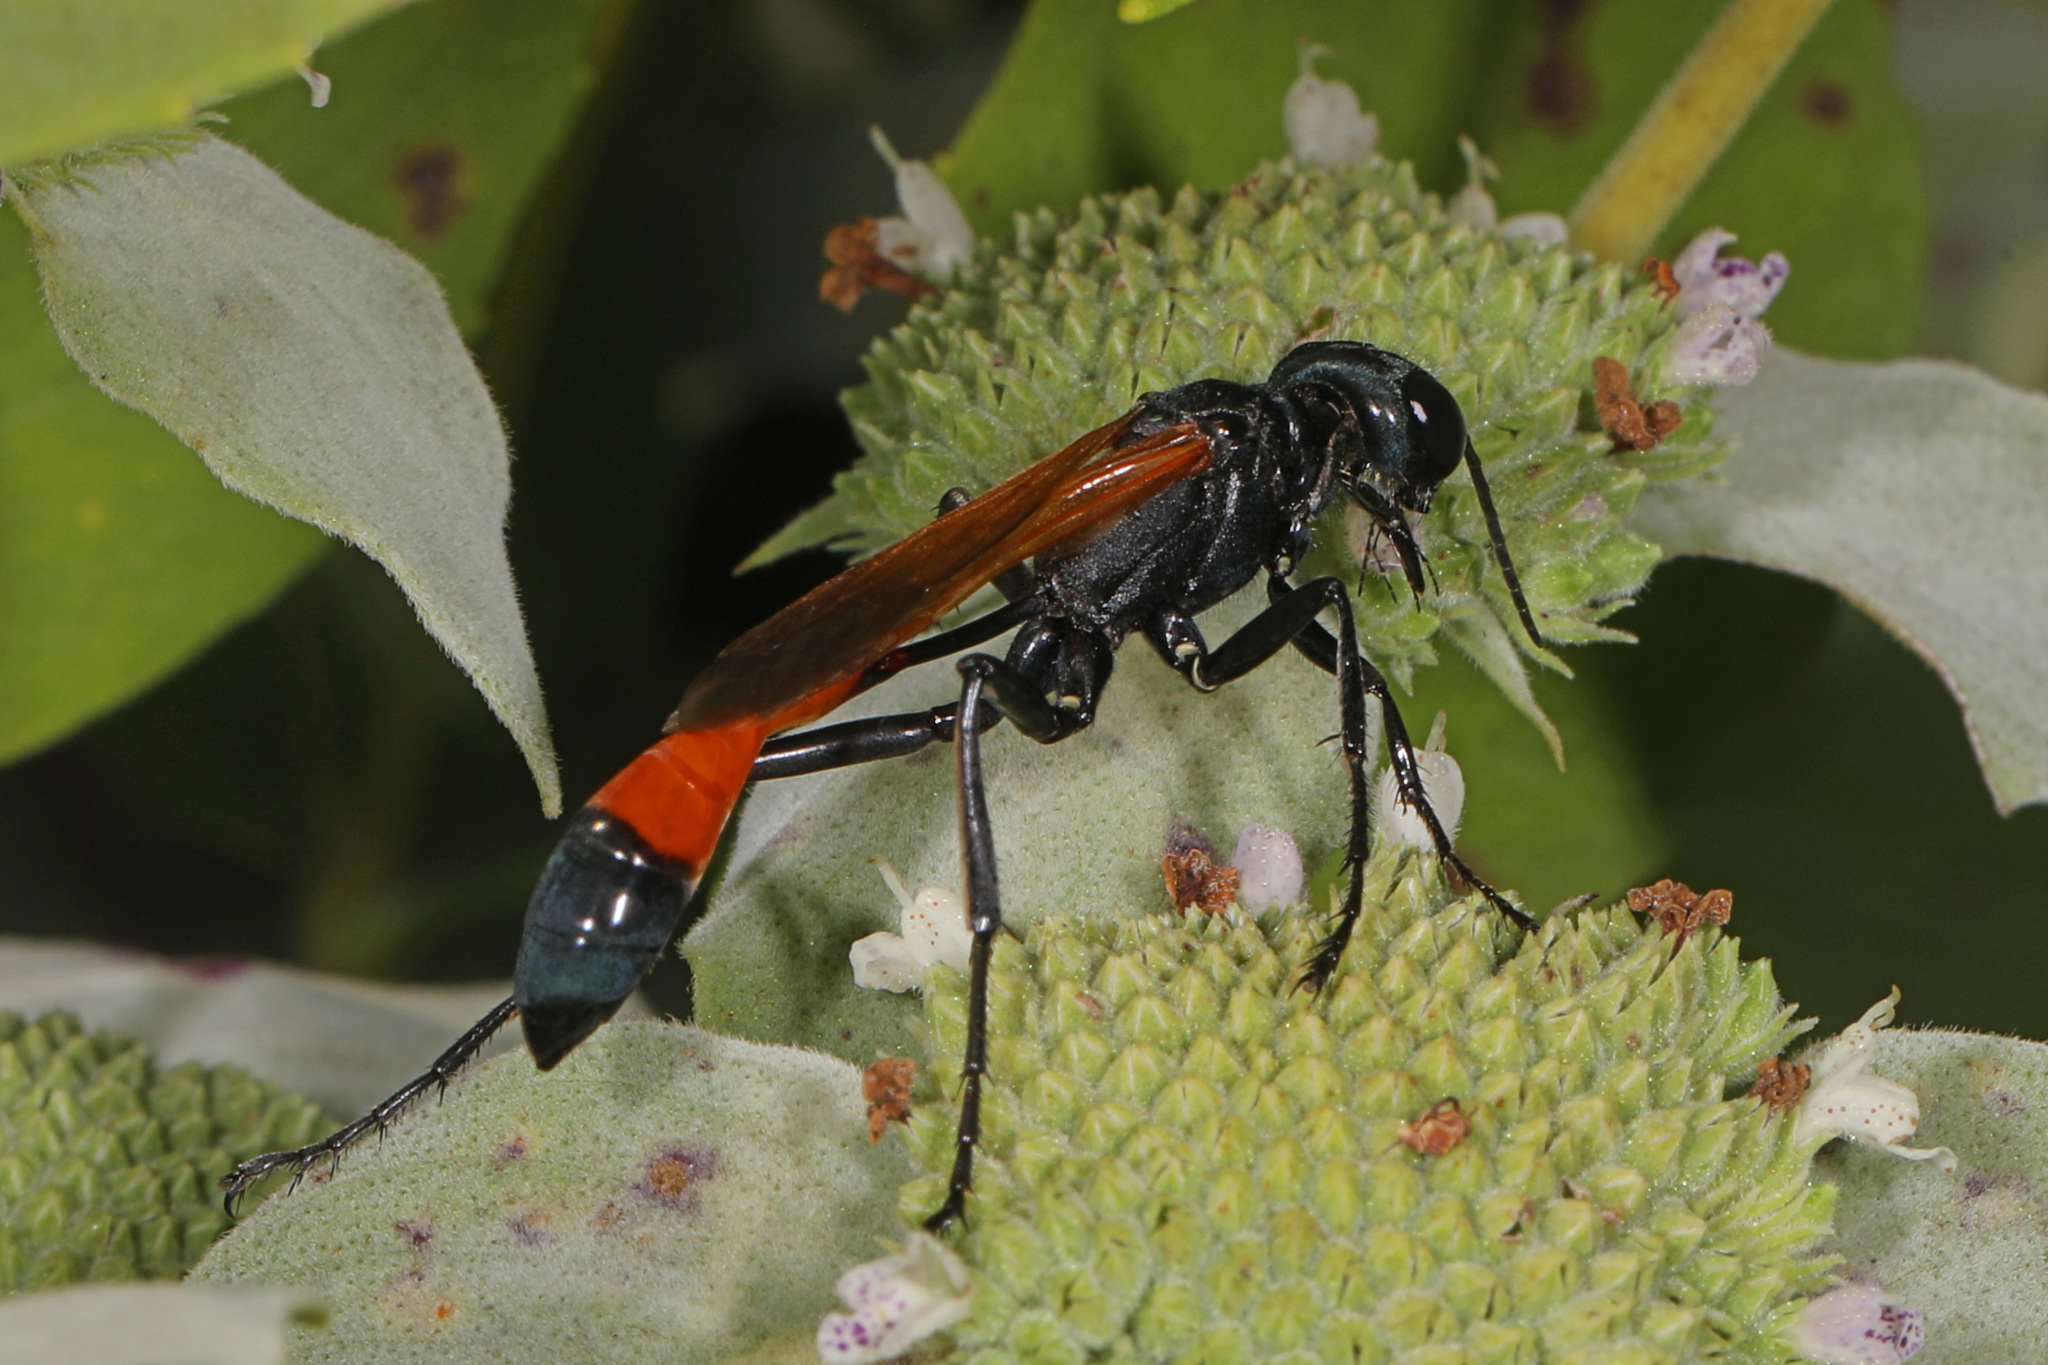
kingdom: Animalia
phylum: Arthropoda
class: Insecta
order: Hymenoptera
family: Sphecidae
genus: Ammophila
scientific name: Ammophila pictipennis
